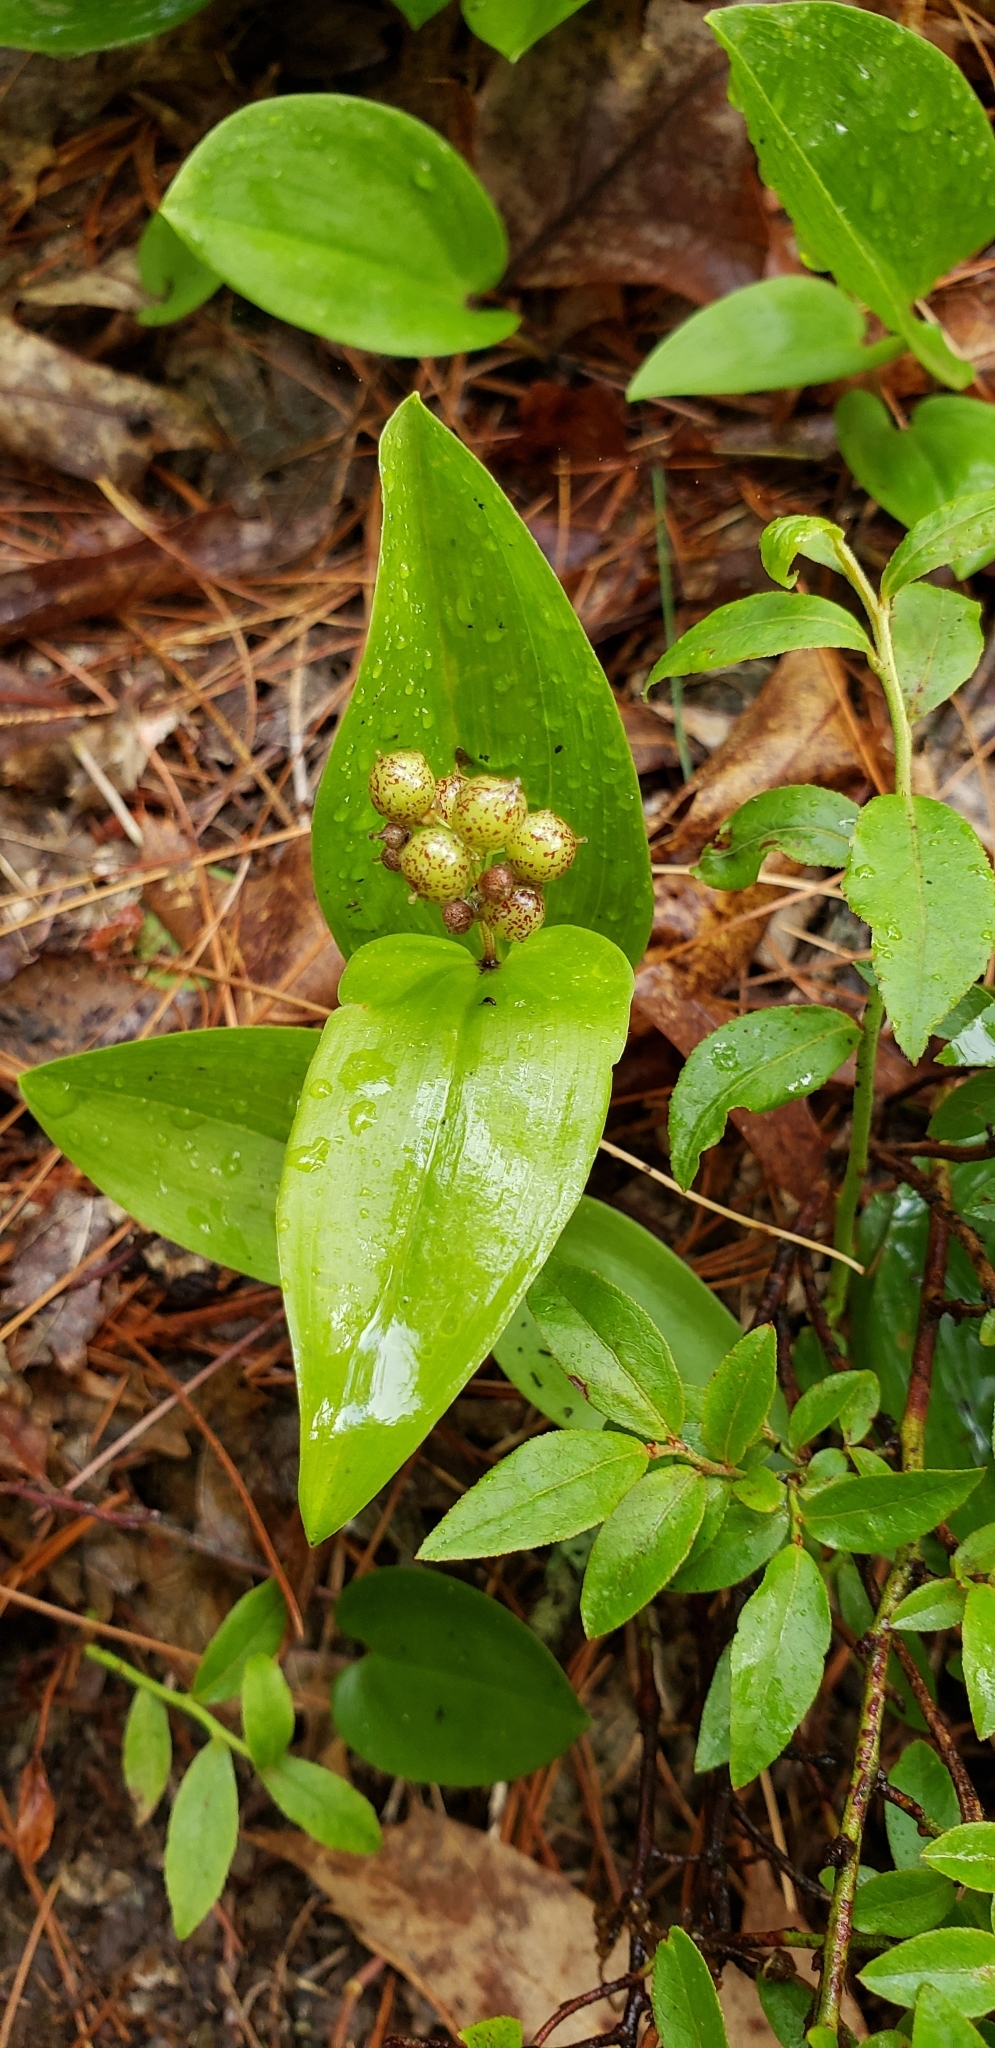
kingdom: Plantae
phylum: Tracheophyta
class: Liliopsida
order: Asparagales
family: Asparagaceae
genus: Maianthemum
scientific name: Maianthemum canadense
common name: False lily-of-the-valley
